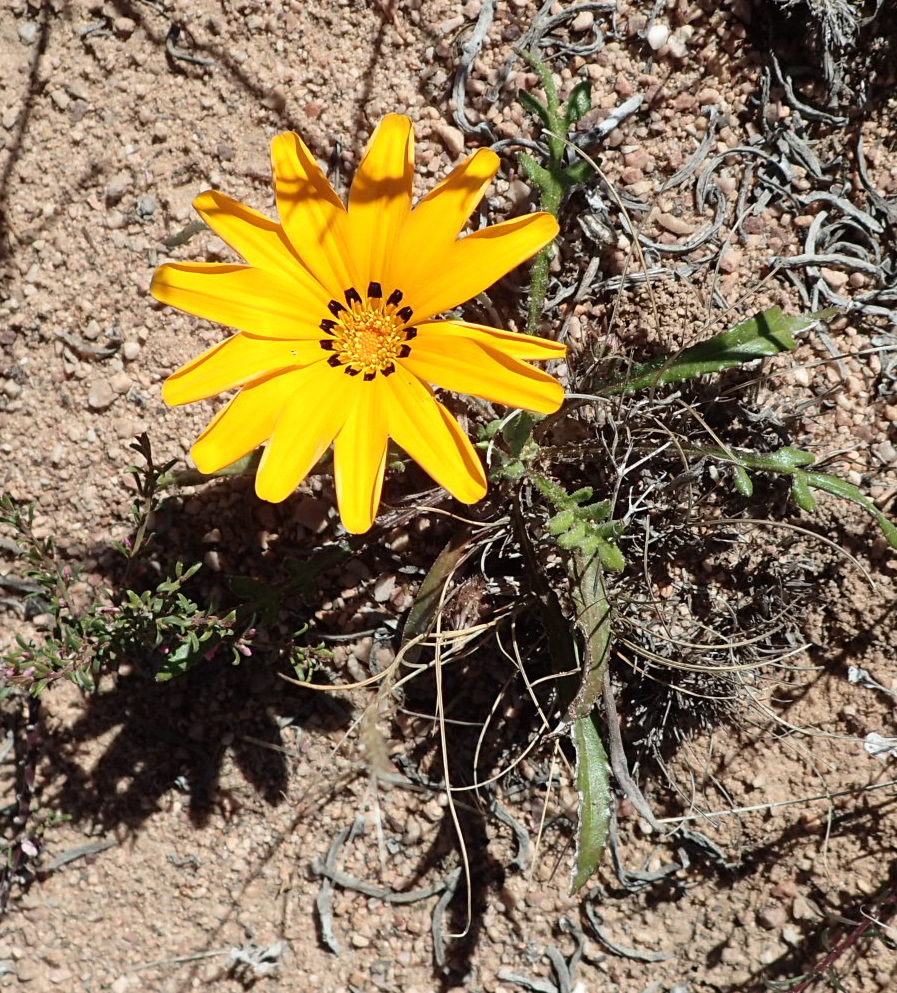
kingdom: Plantae
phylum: Tracheophyta
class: Magnoliopsida
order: Asterales
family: Asteraceae
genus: Gazania
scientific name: Gazania krebsiana
